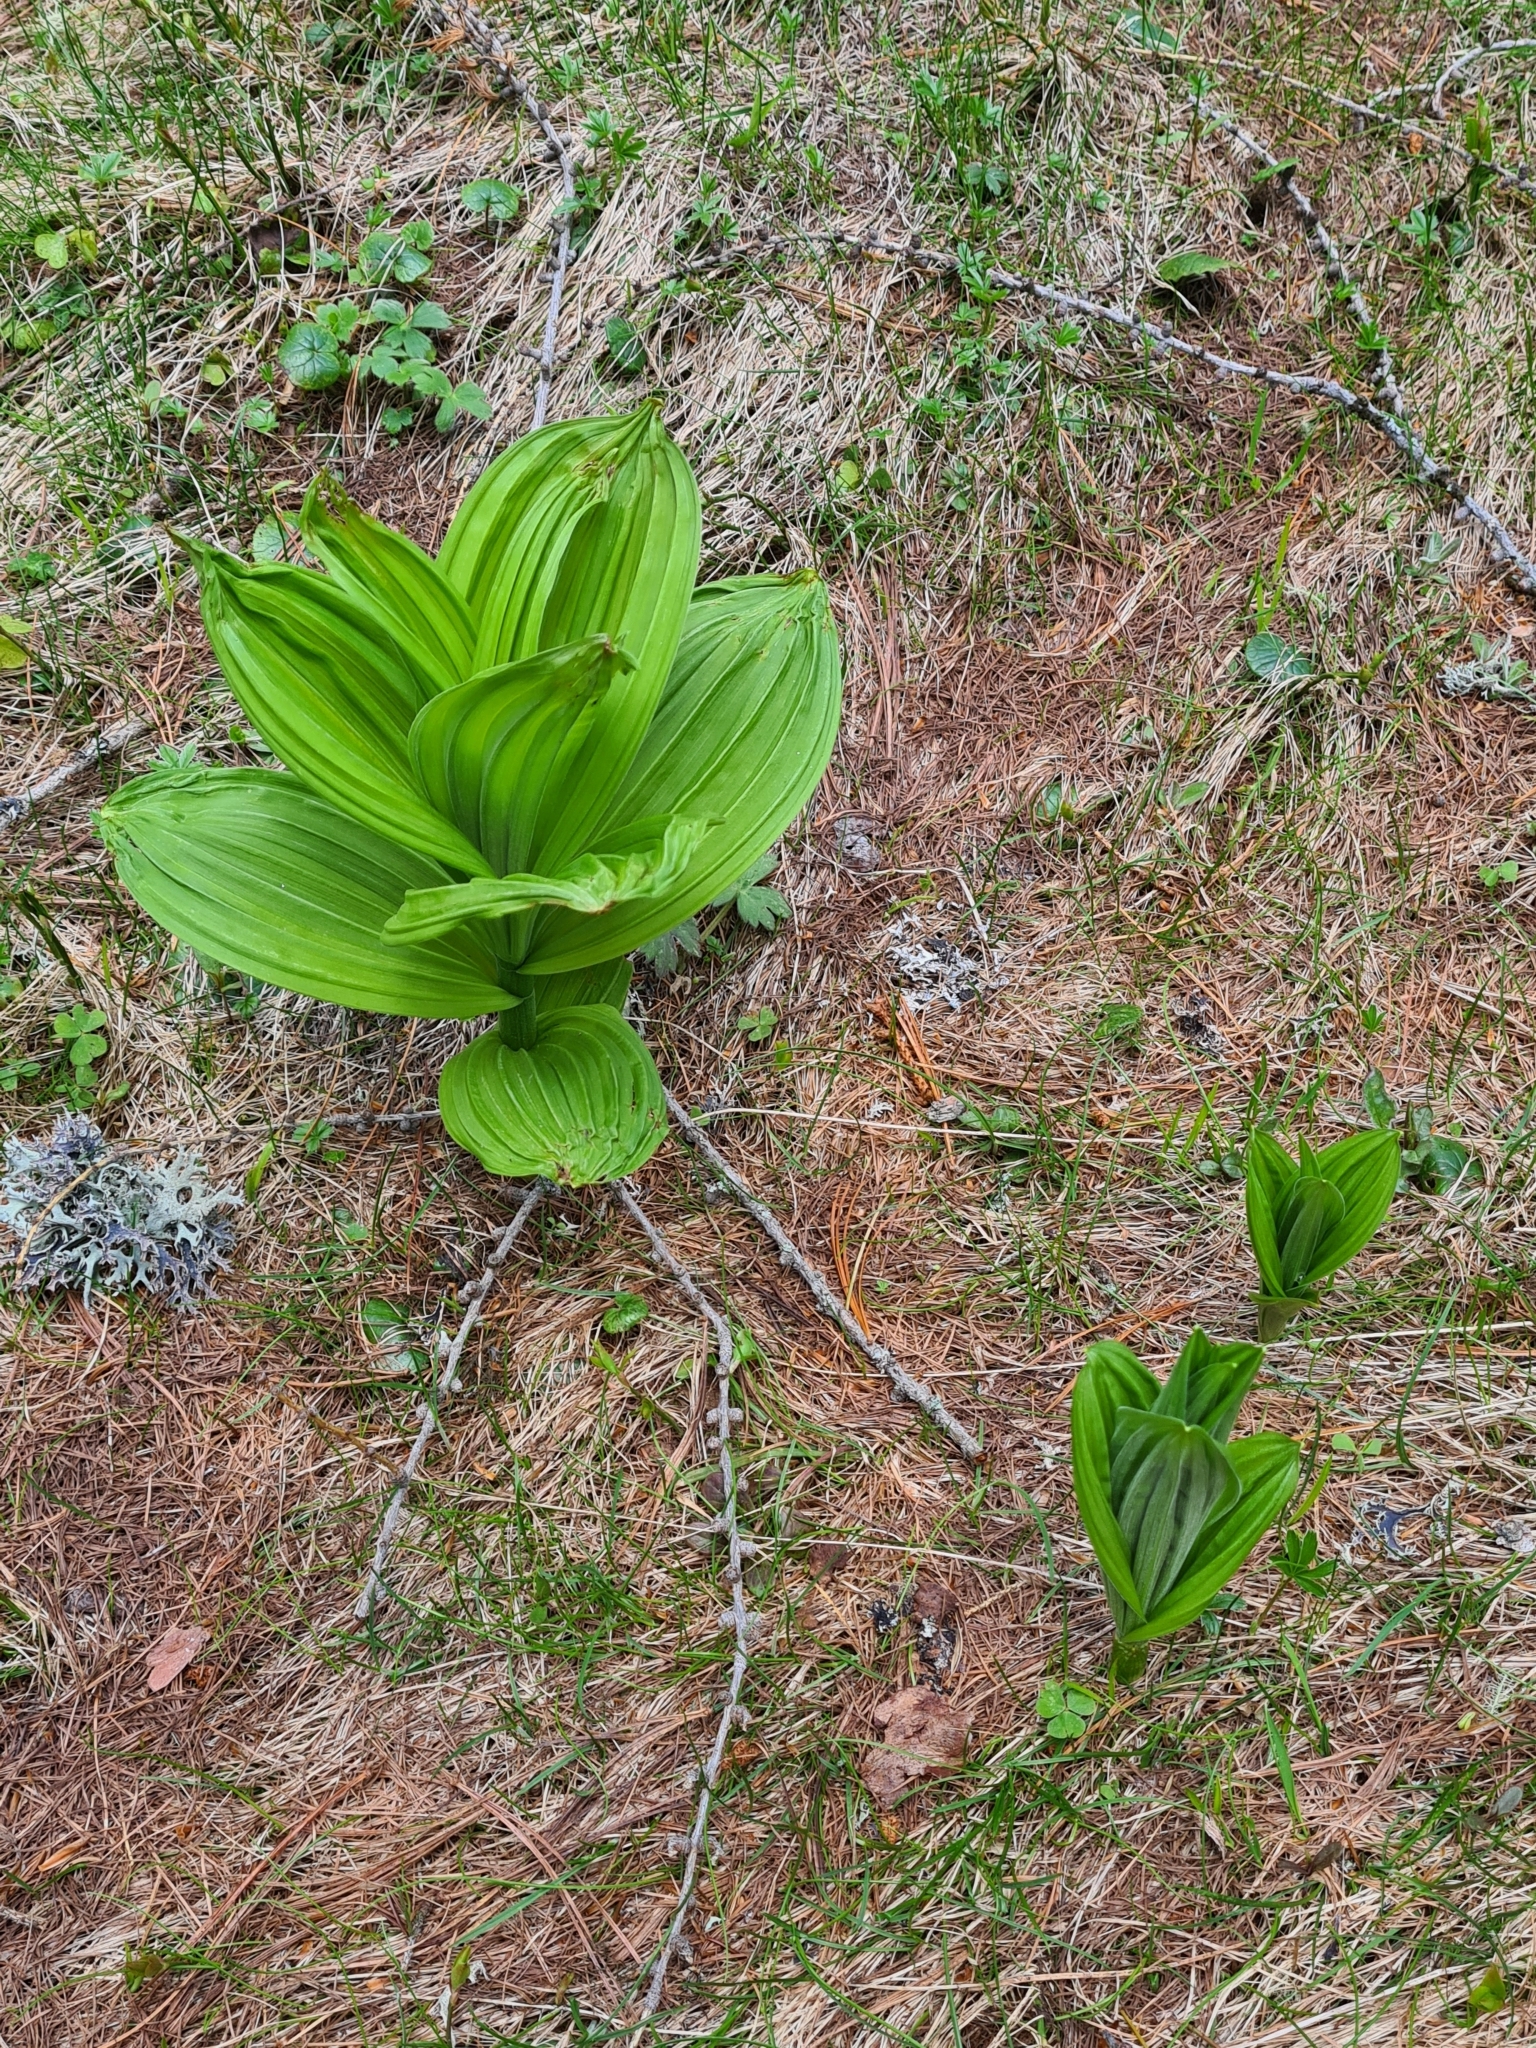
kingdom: Plantae
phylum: Tracheophyta
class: Liliopsida
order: Liliales
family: Melanthiaceae
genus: Veratrum
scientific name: Veratrum
